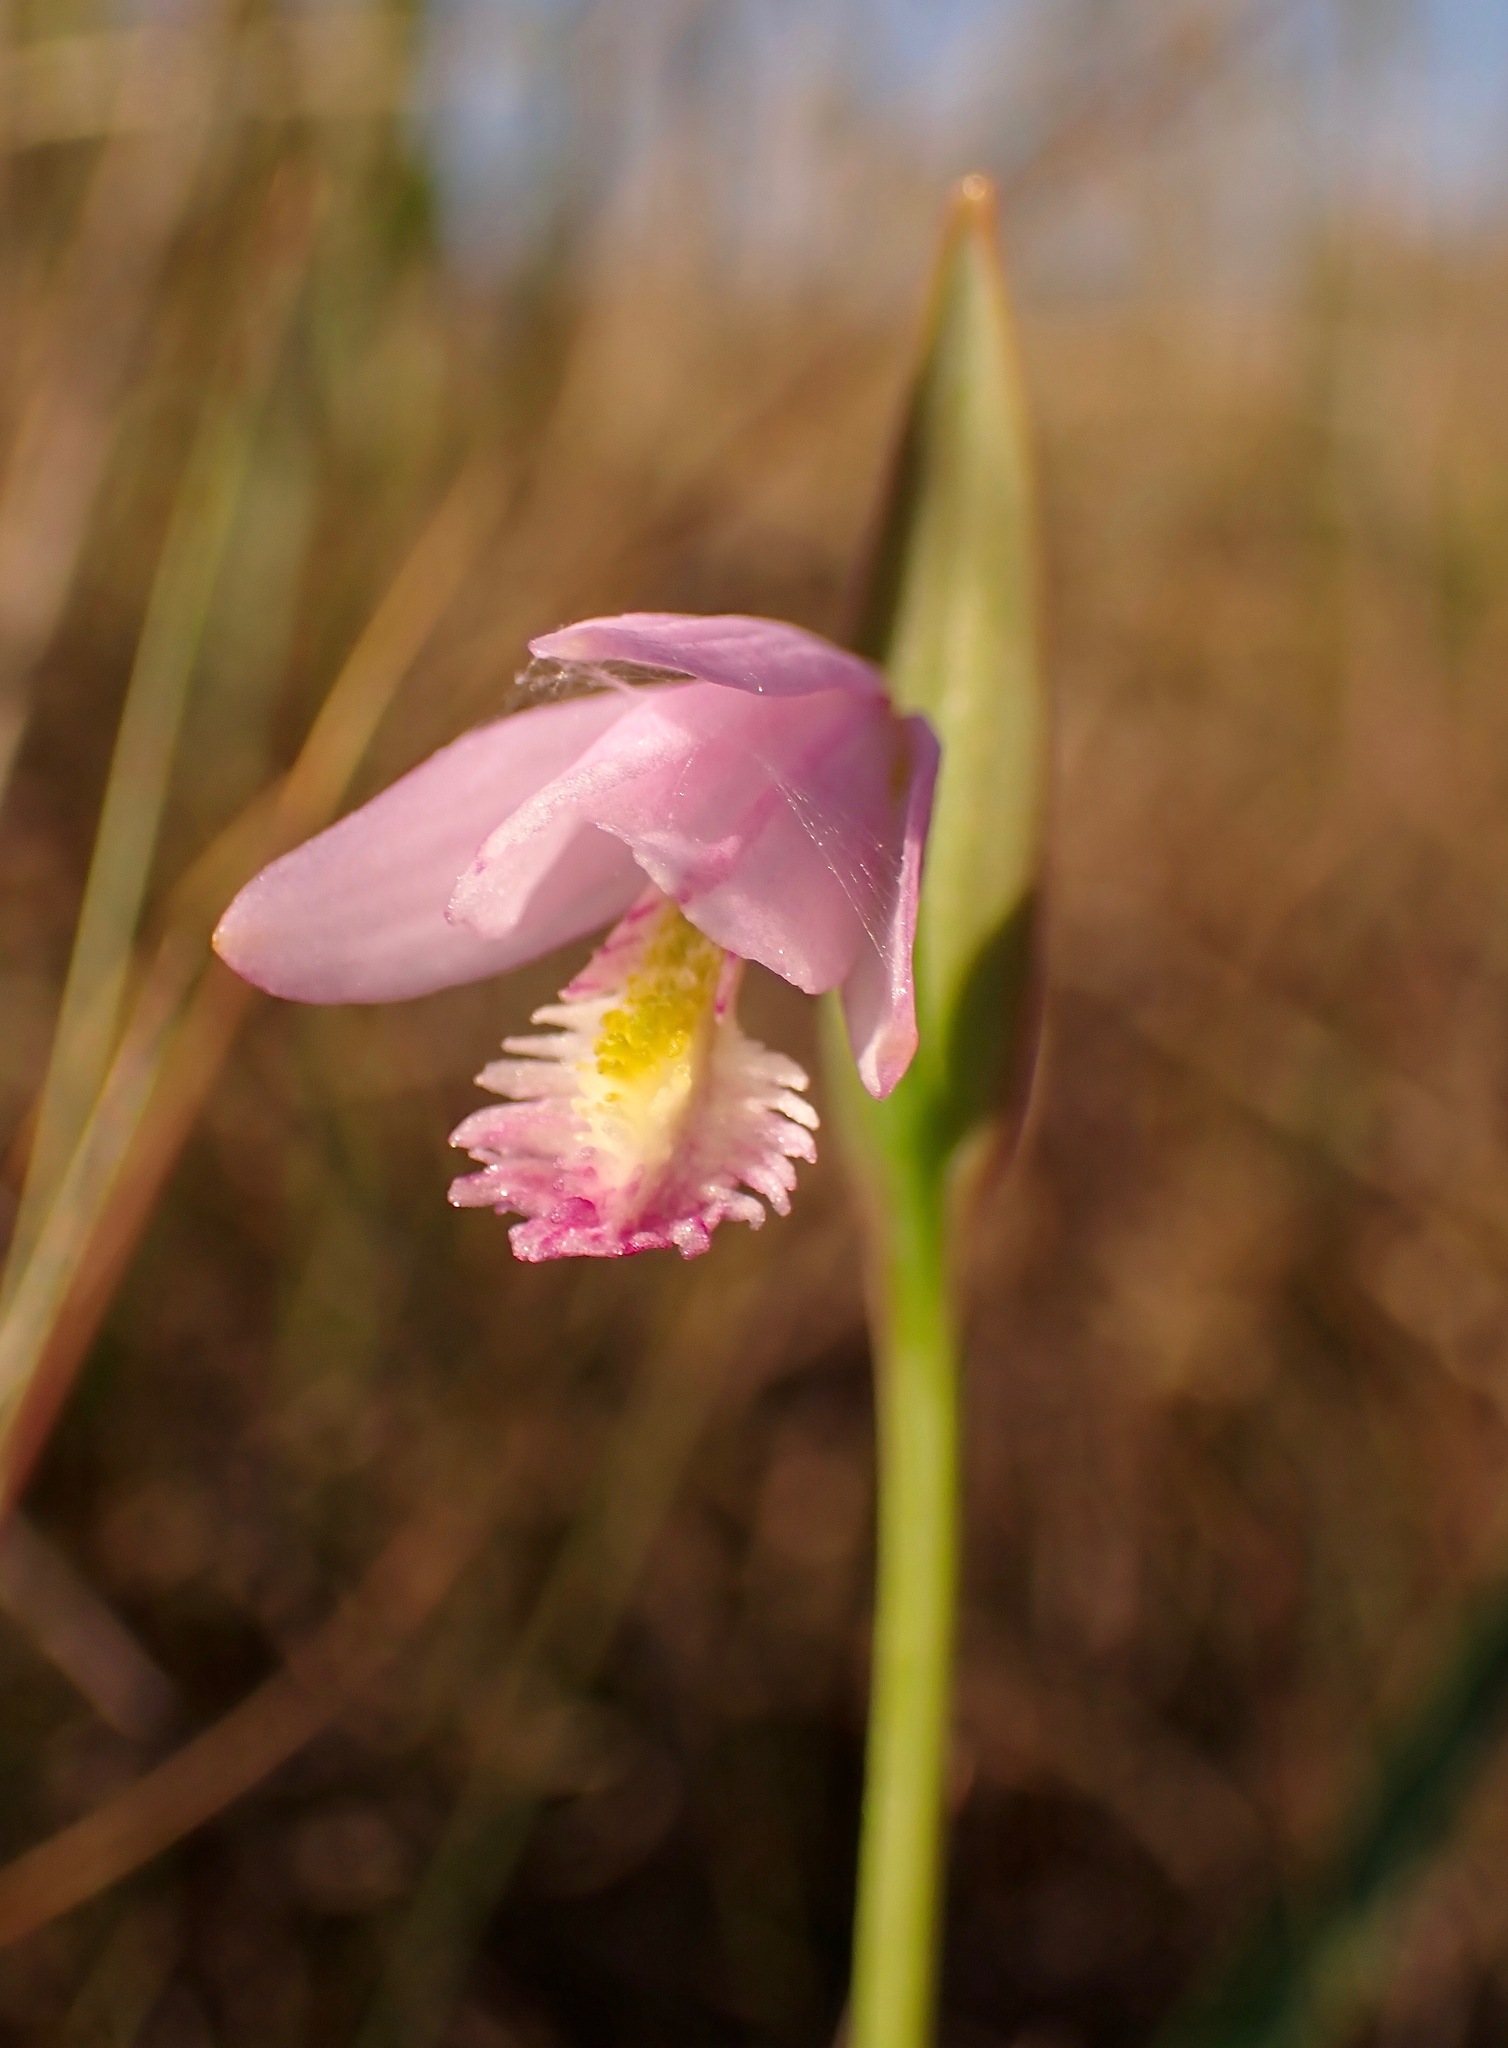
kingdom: Plantae
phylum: Tracheophyta
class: Liliopsida
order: Asparagales
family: Orchidaceae
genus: Pogonia
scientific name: Pogonia ophioglossoides
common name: Rose pogonia
